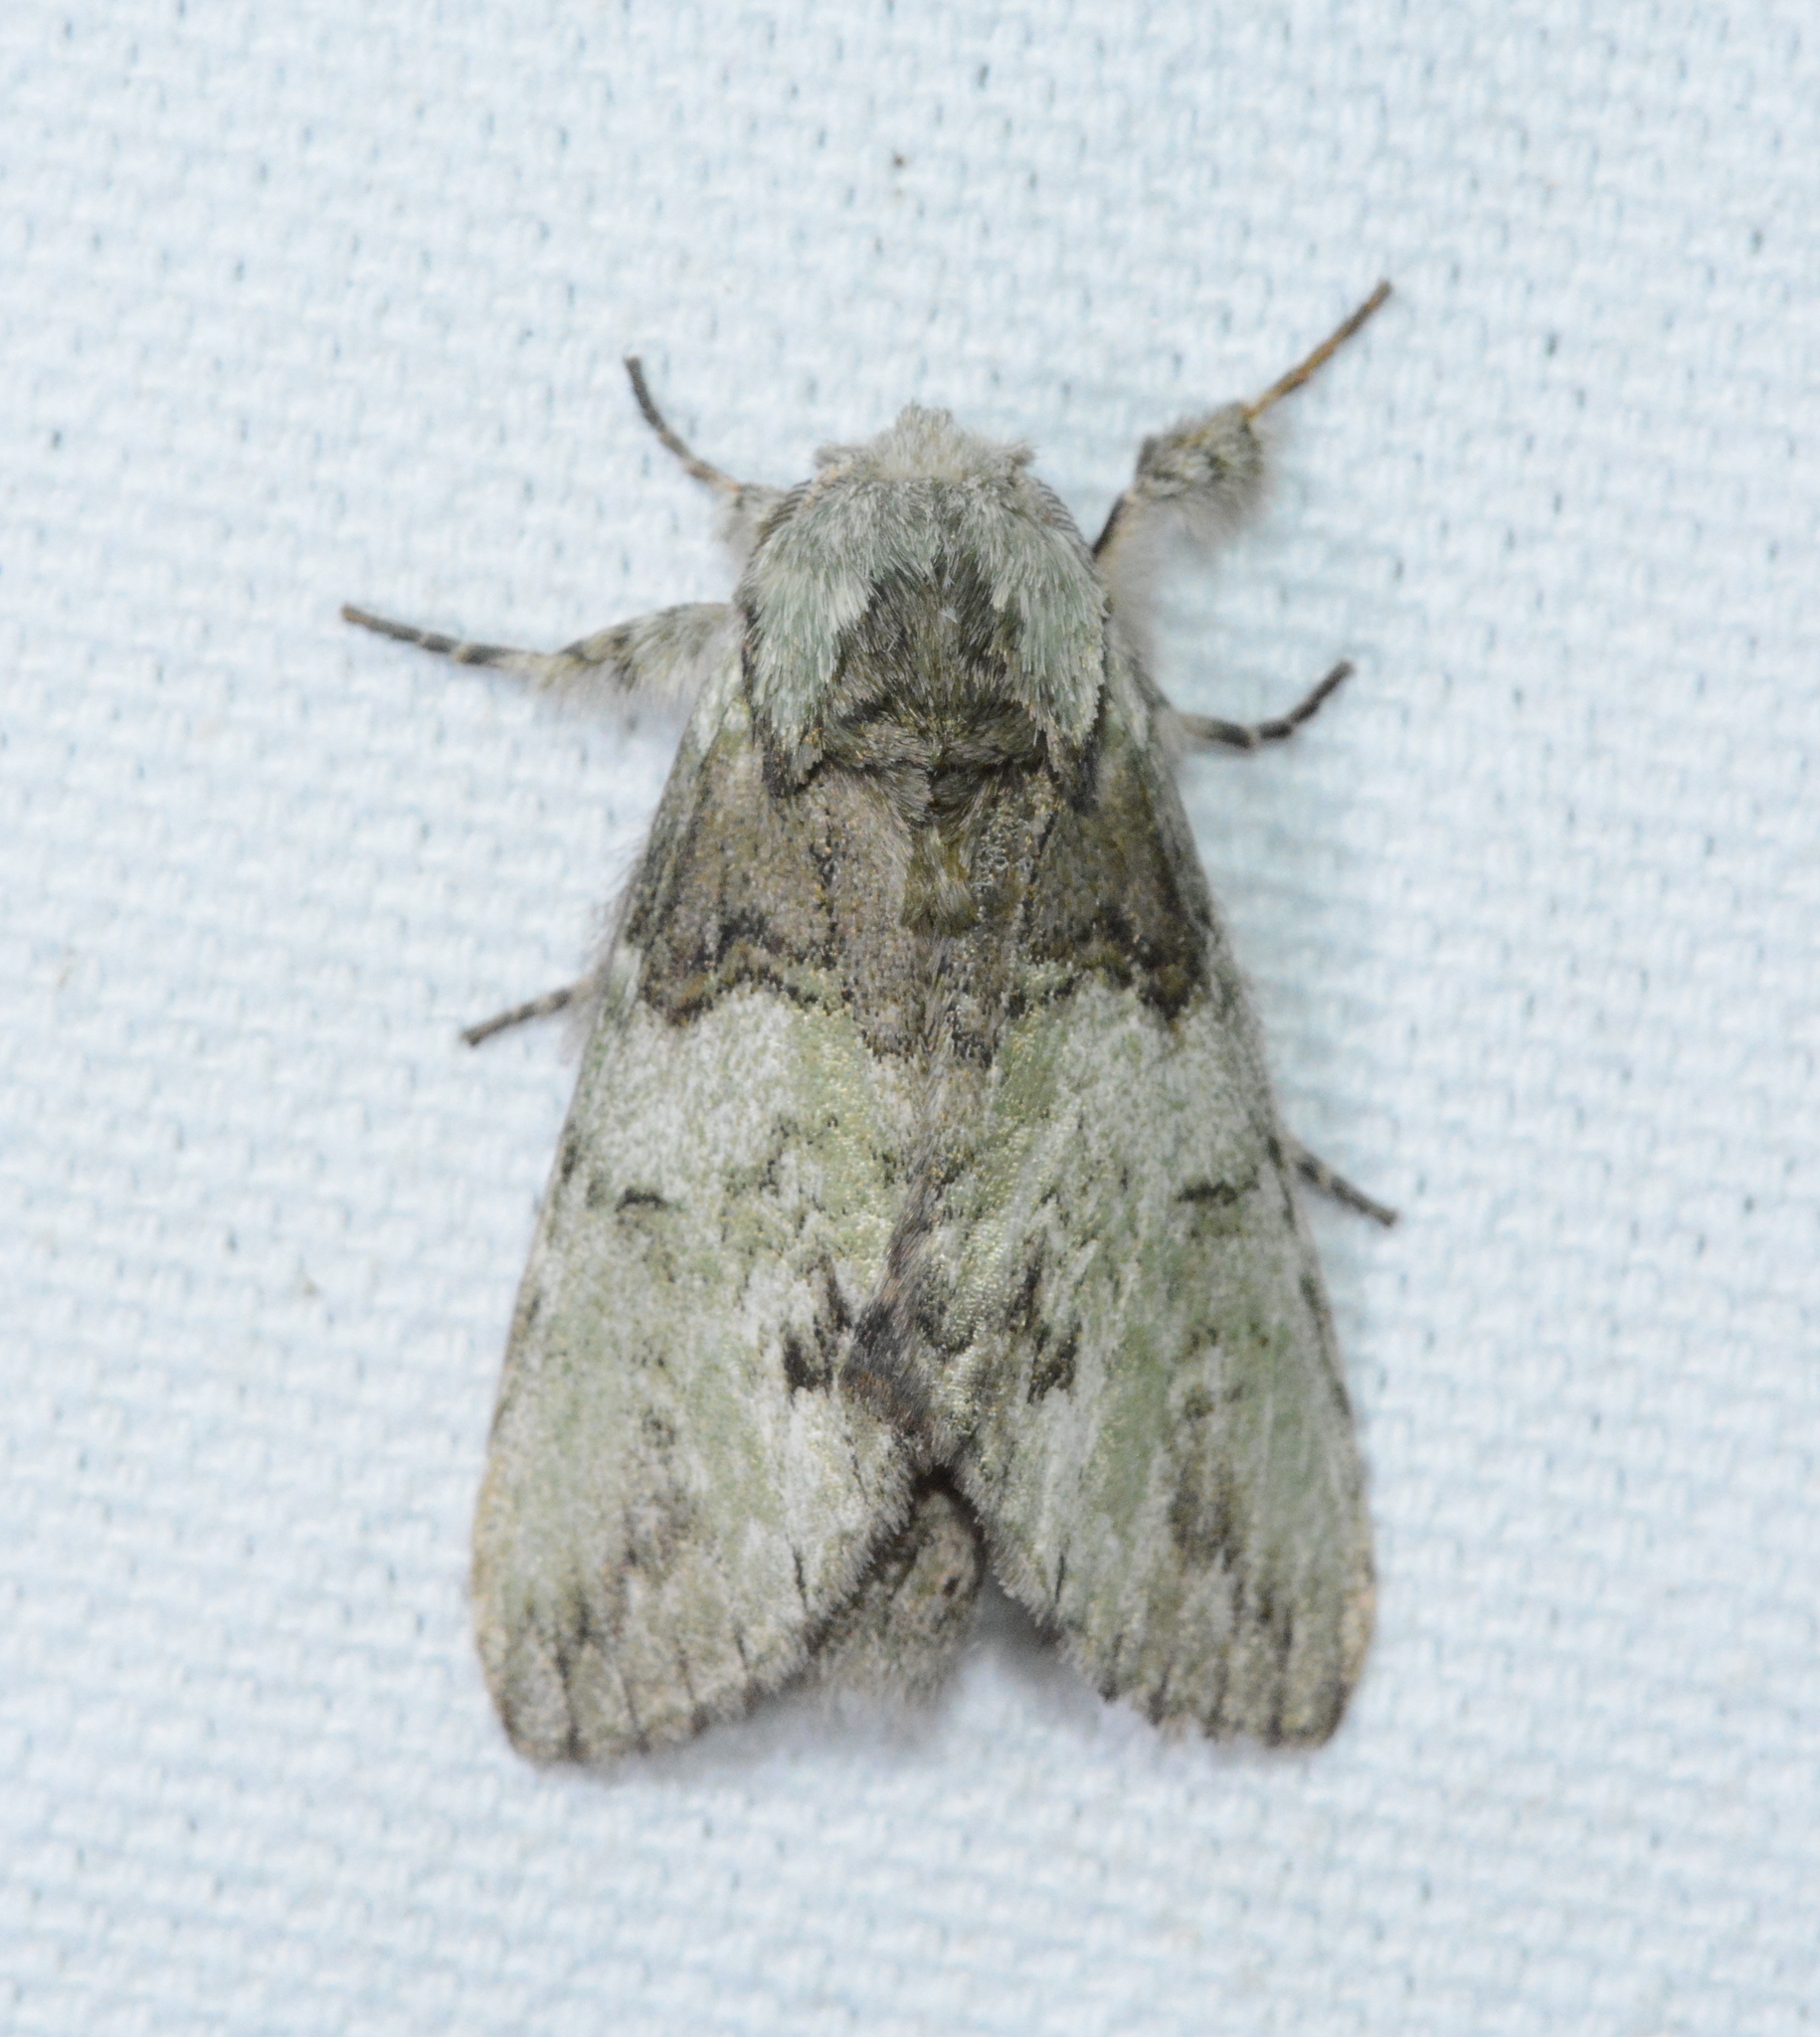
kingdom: Animalia
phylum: Arthropoda
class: Insecta
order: Lepidoptera
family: Notodontidae
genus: Macrurocampa
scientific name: Macrurocampa marthesia
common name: Mottled prominent
